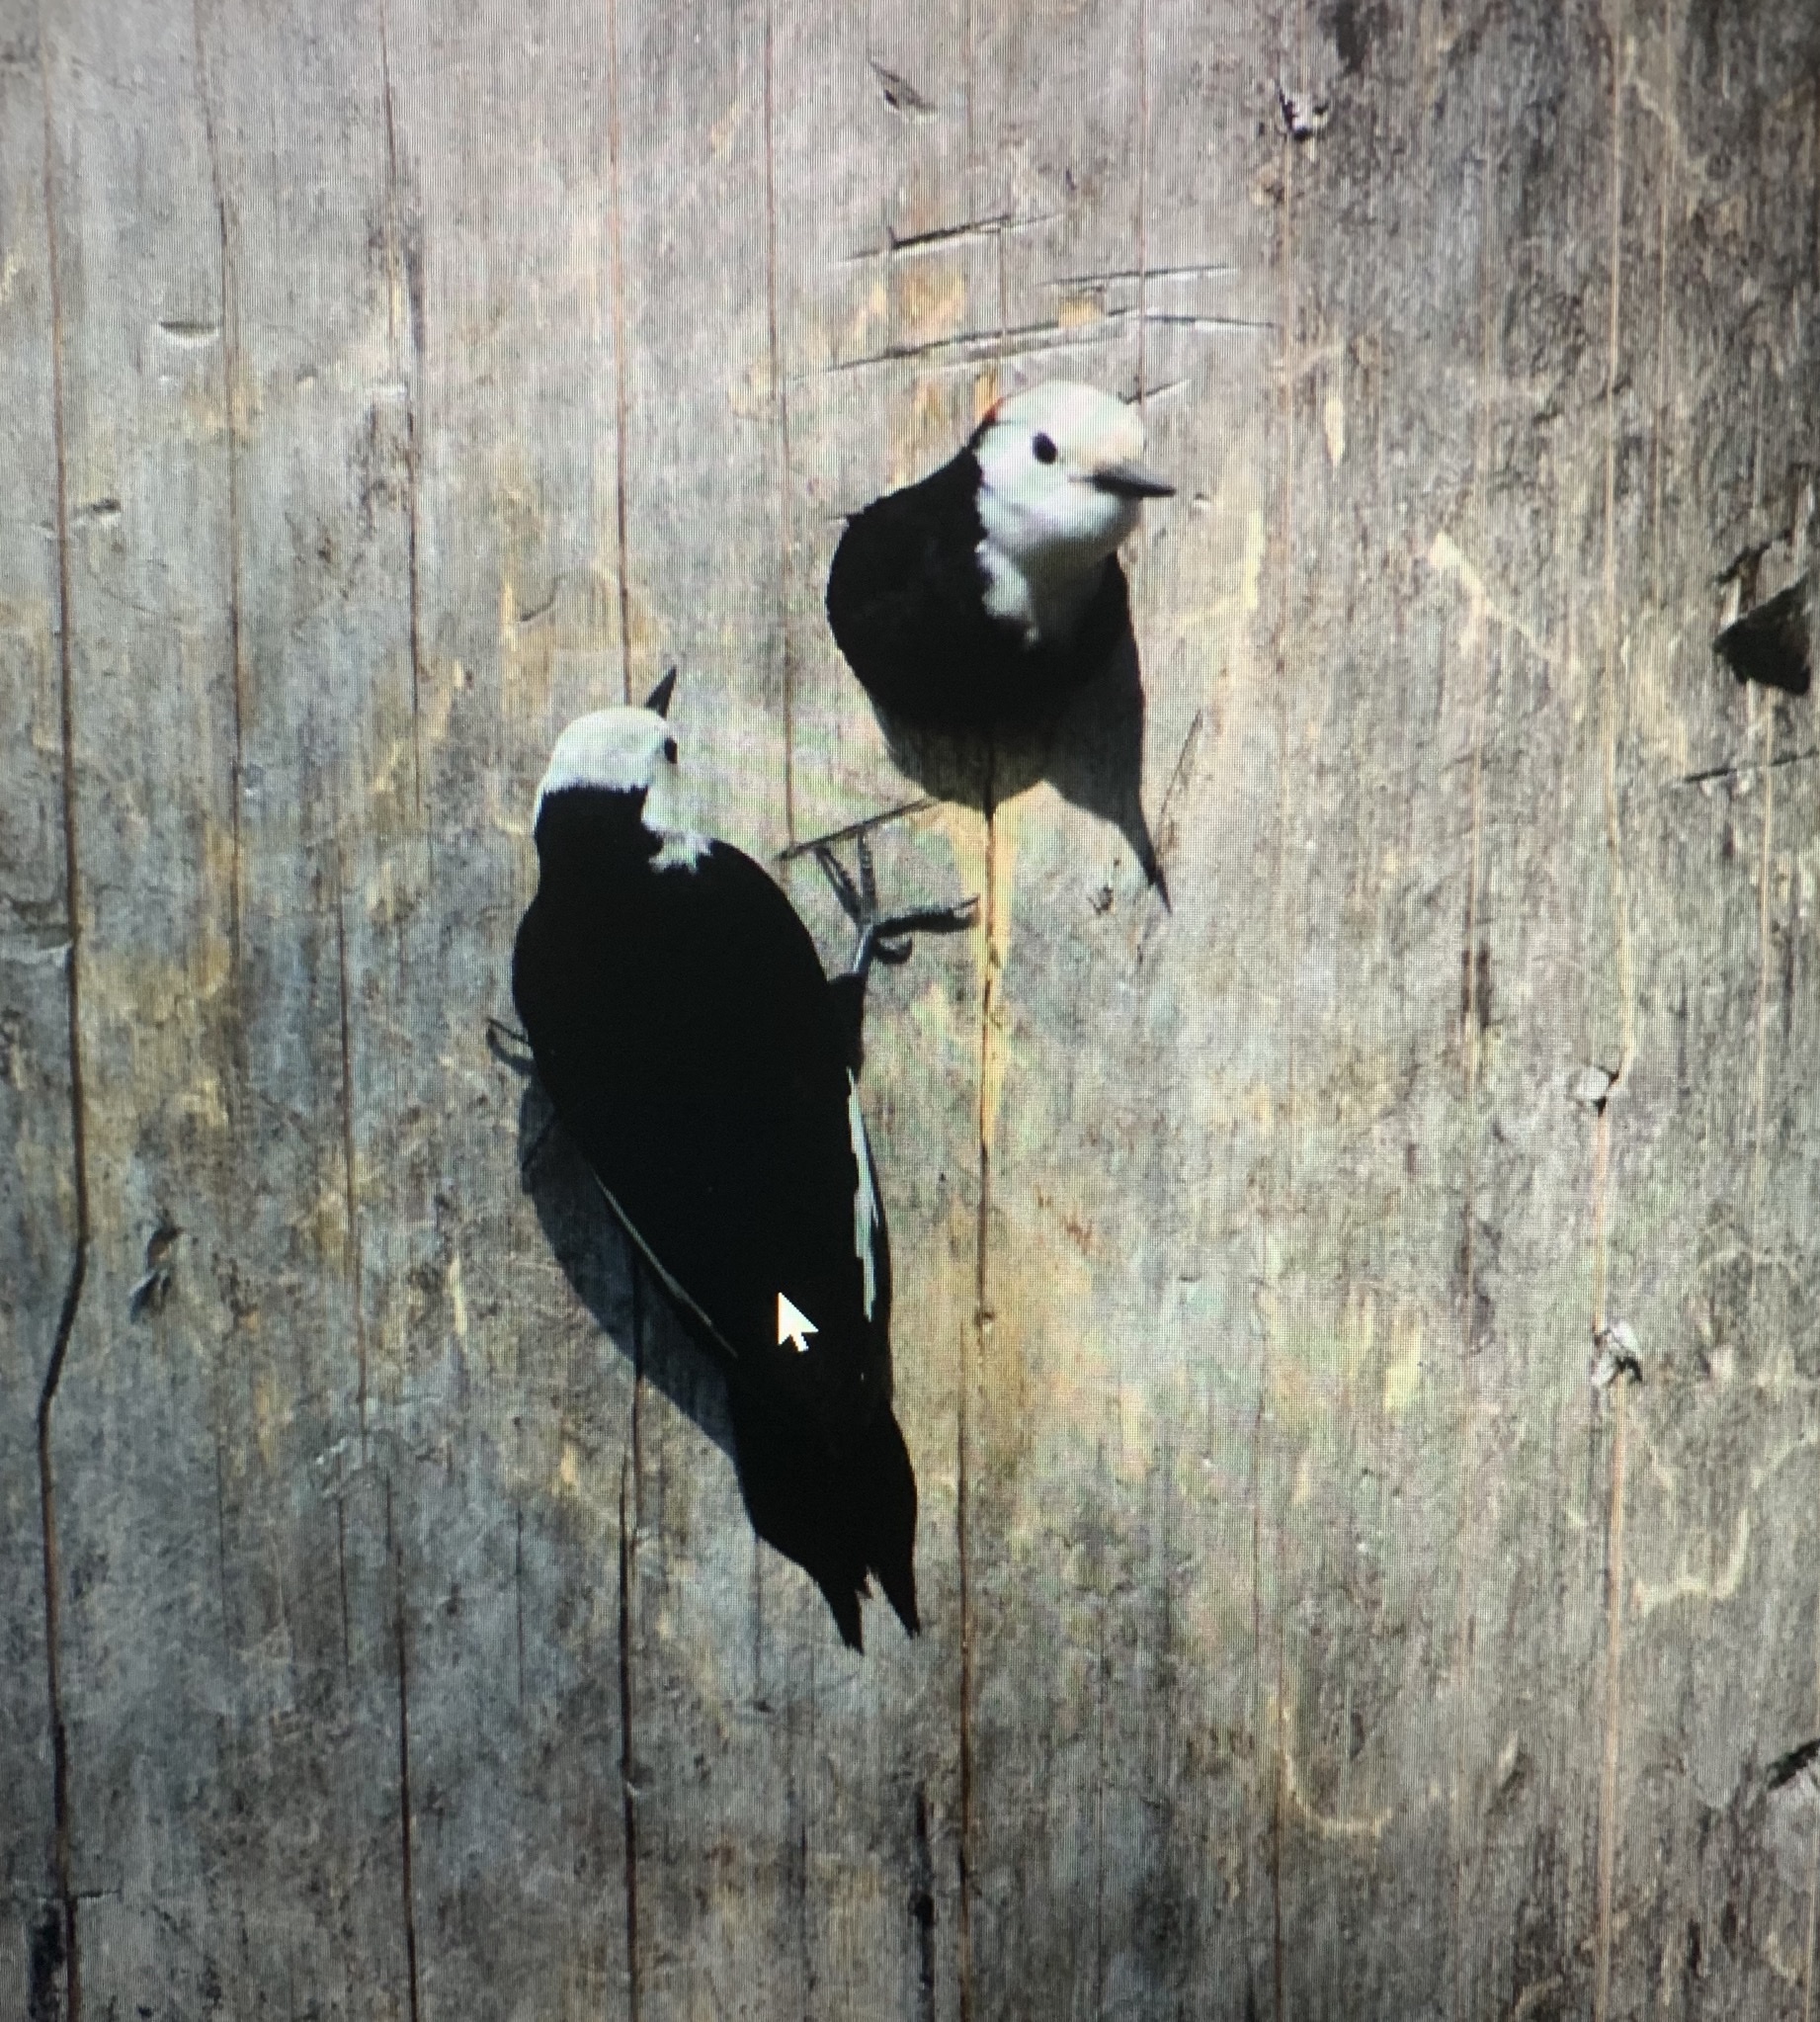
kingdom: Animalia
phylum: Chordata
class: Aves
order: Piciformes
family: Picidae
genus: Leuconotopicus
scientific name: Leuconotopicus albolarvatus
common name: White-headed woodpecker
